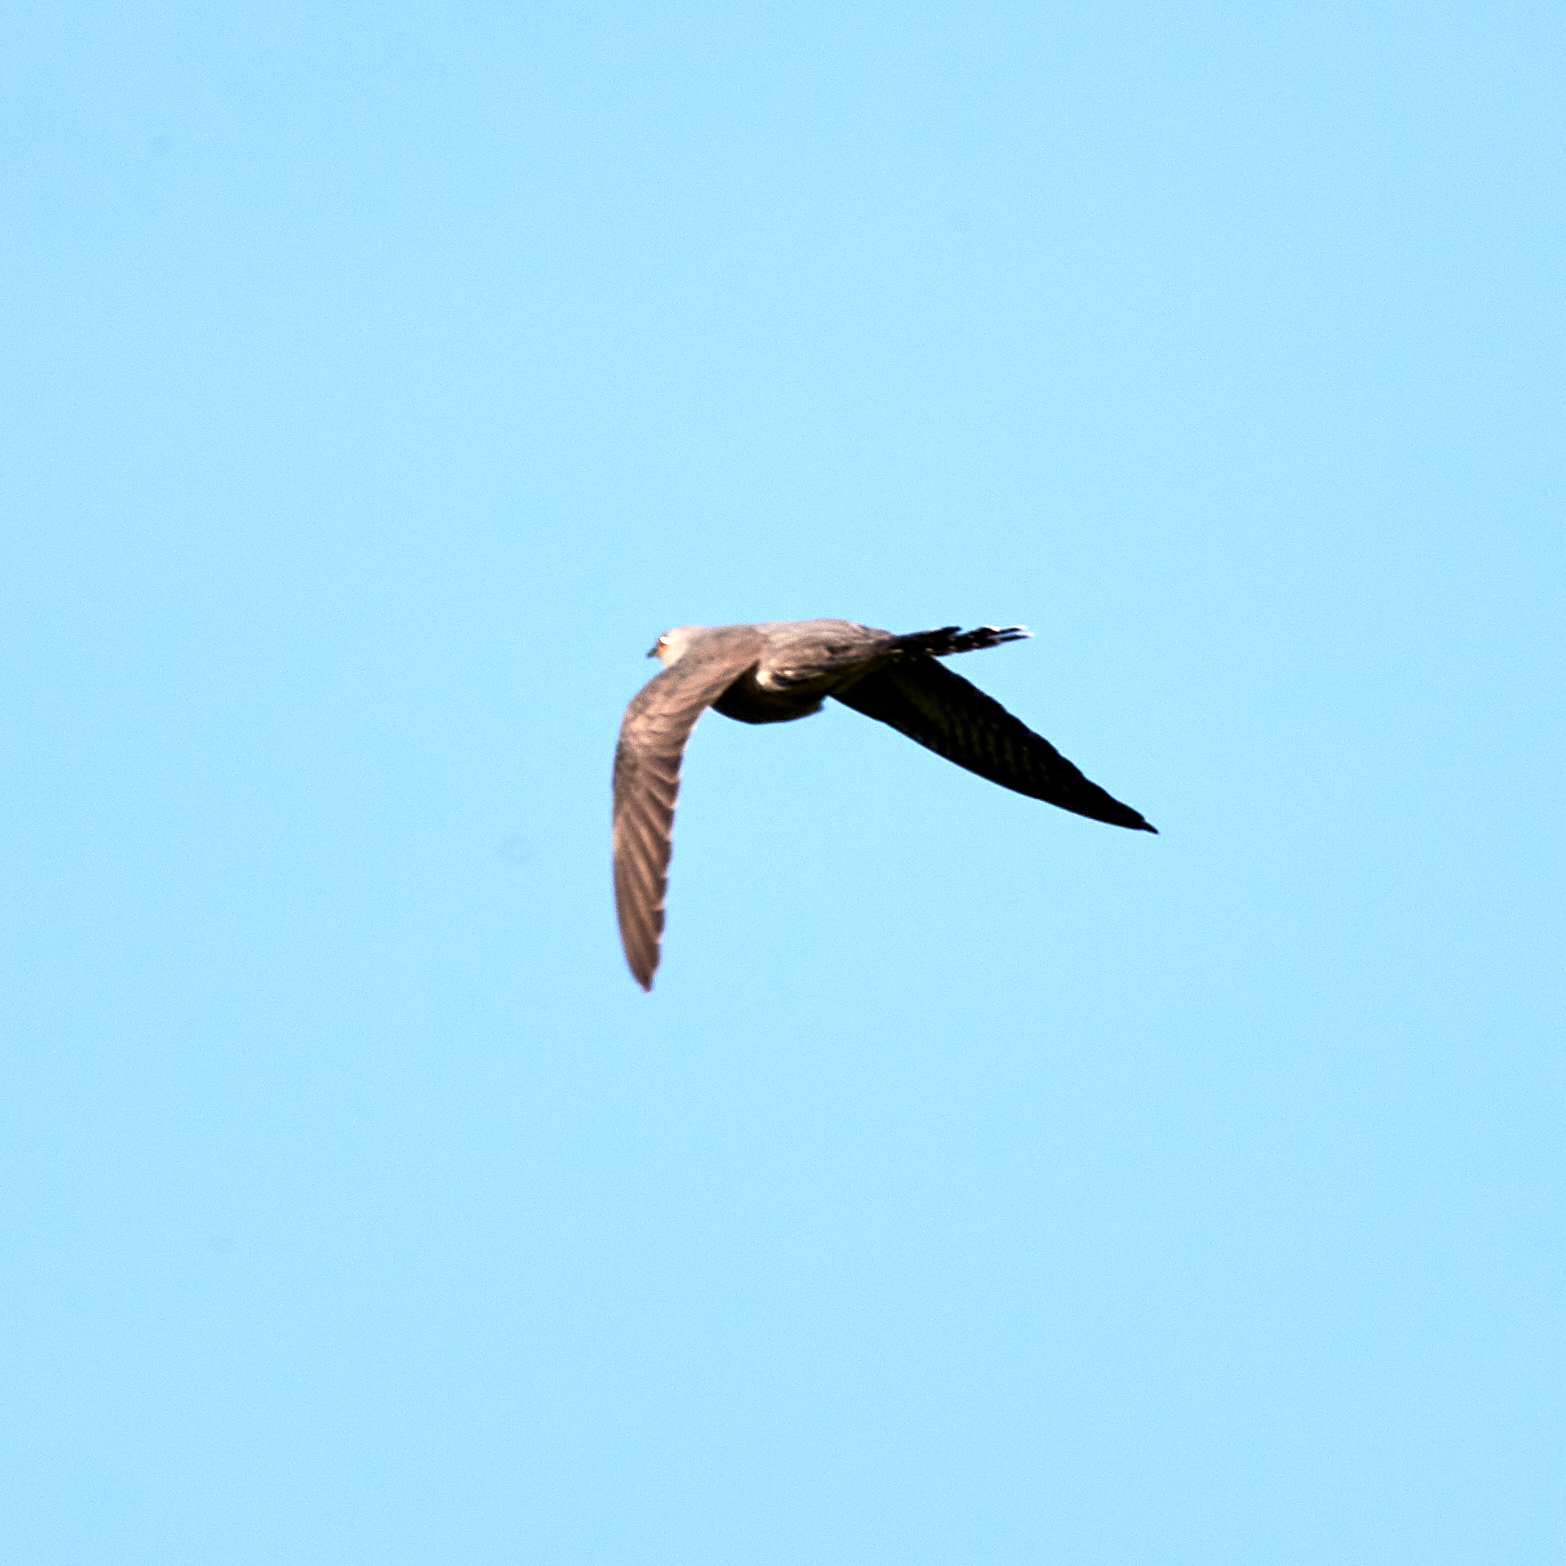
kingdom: Animalia
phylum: Chordata
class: Aves
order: Cuculiformes
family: Cuculidae
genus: Cuculus
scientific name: Cuculus canorus
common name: Common cuckoo
